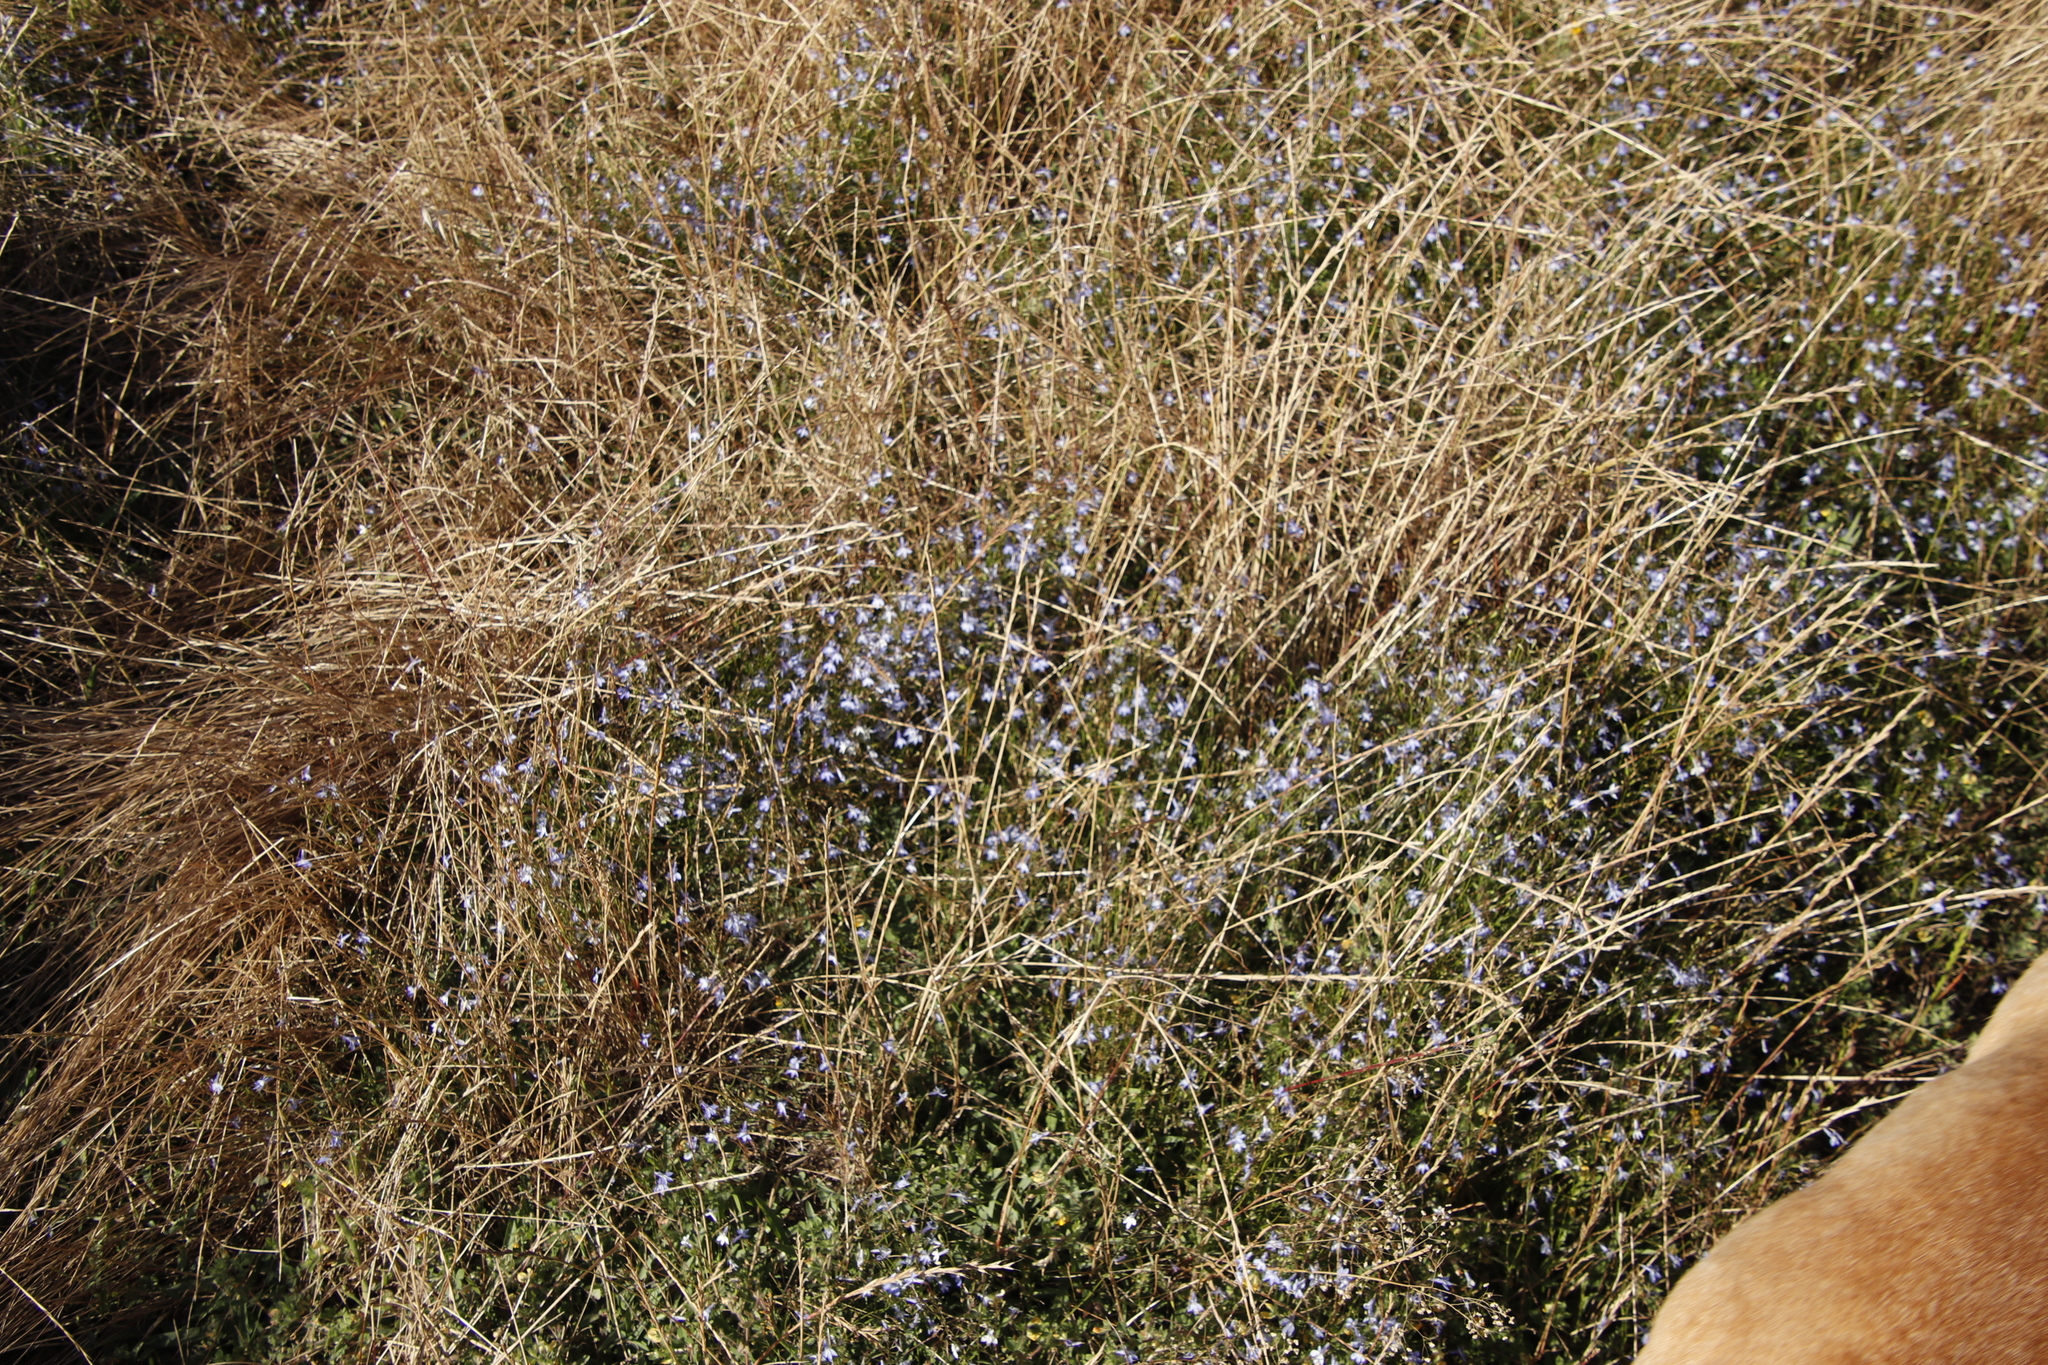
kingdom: Plantae
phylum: Tracheophyta
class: Magnoliopsida
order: Asterales
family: Campanulaceae
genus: Lobelia
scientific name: Lobelia erinus
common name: Edging lobelia
